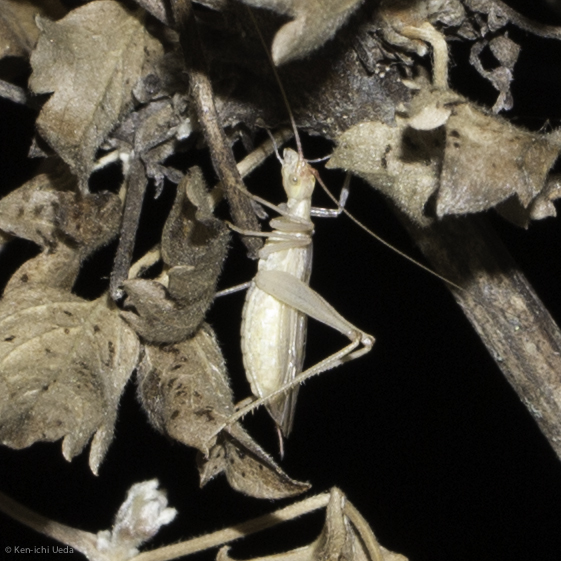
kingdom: Animalia
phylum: Arthropoda
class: Insecta
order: Orthoptera
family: Gryllidae
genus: Oecanthus
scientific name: Oecanthus californicus
